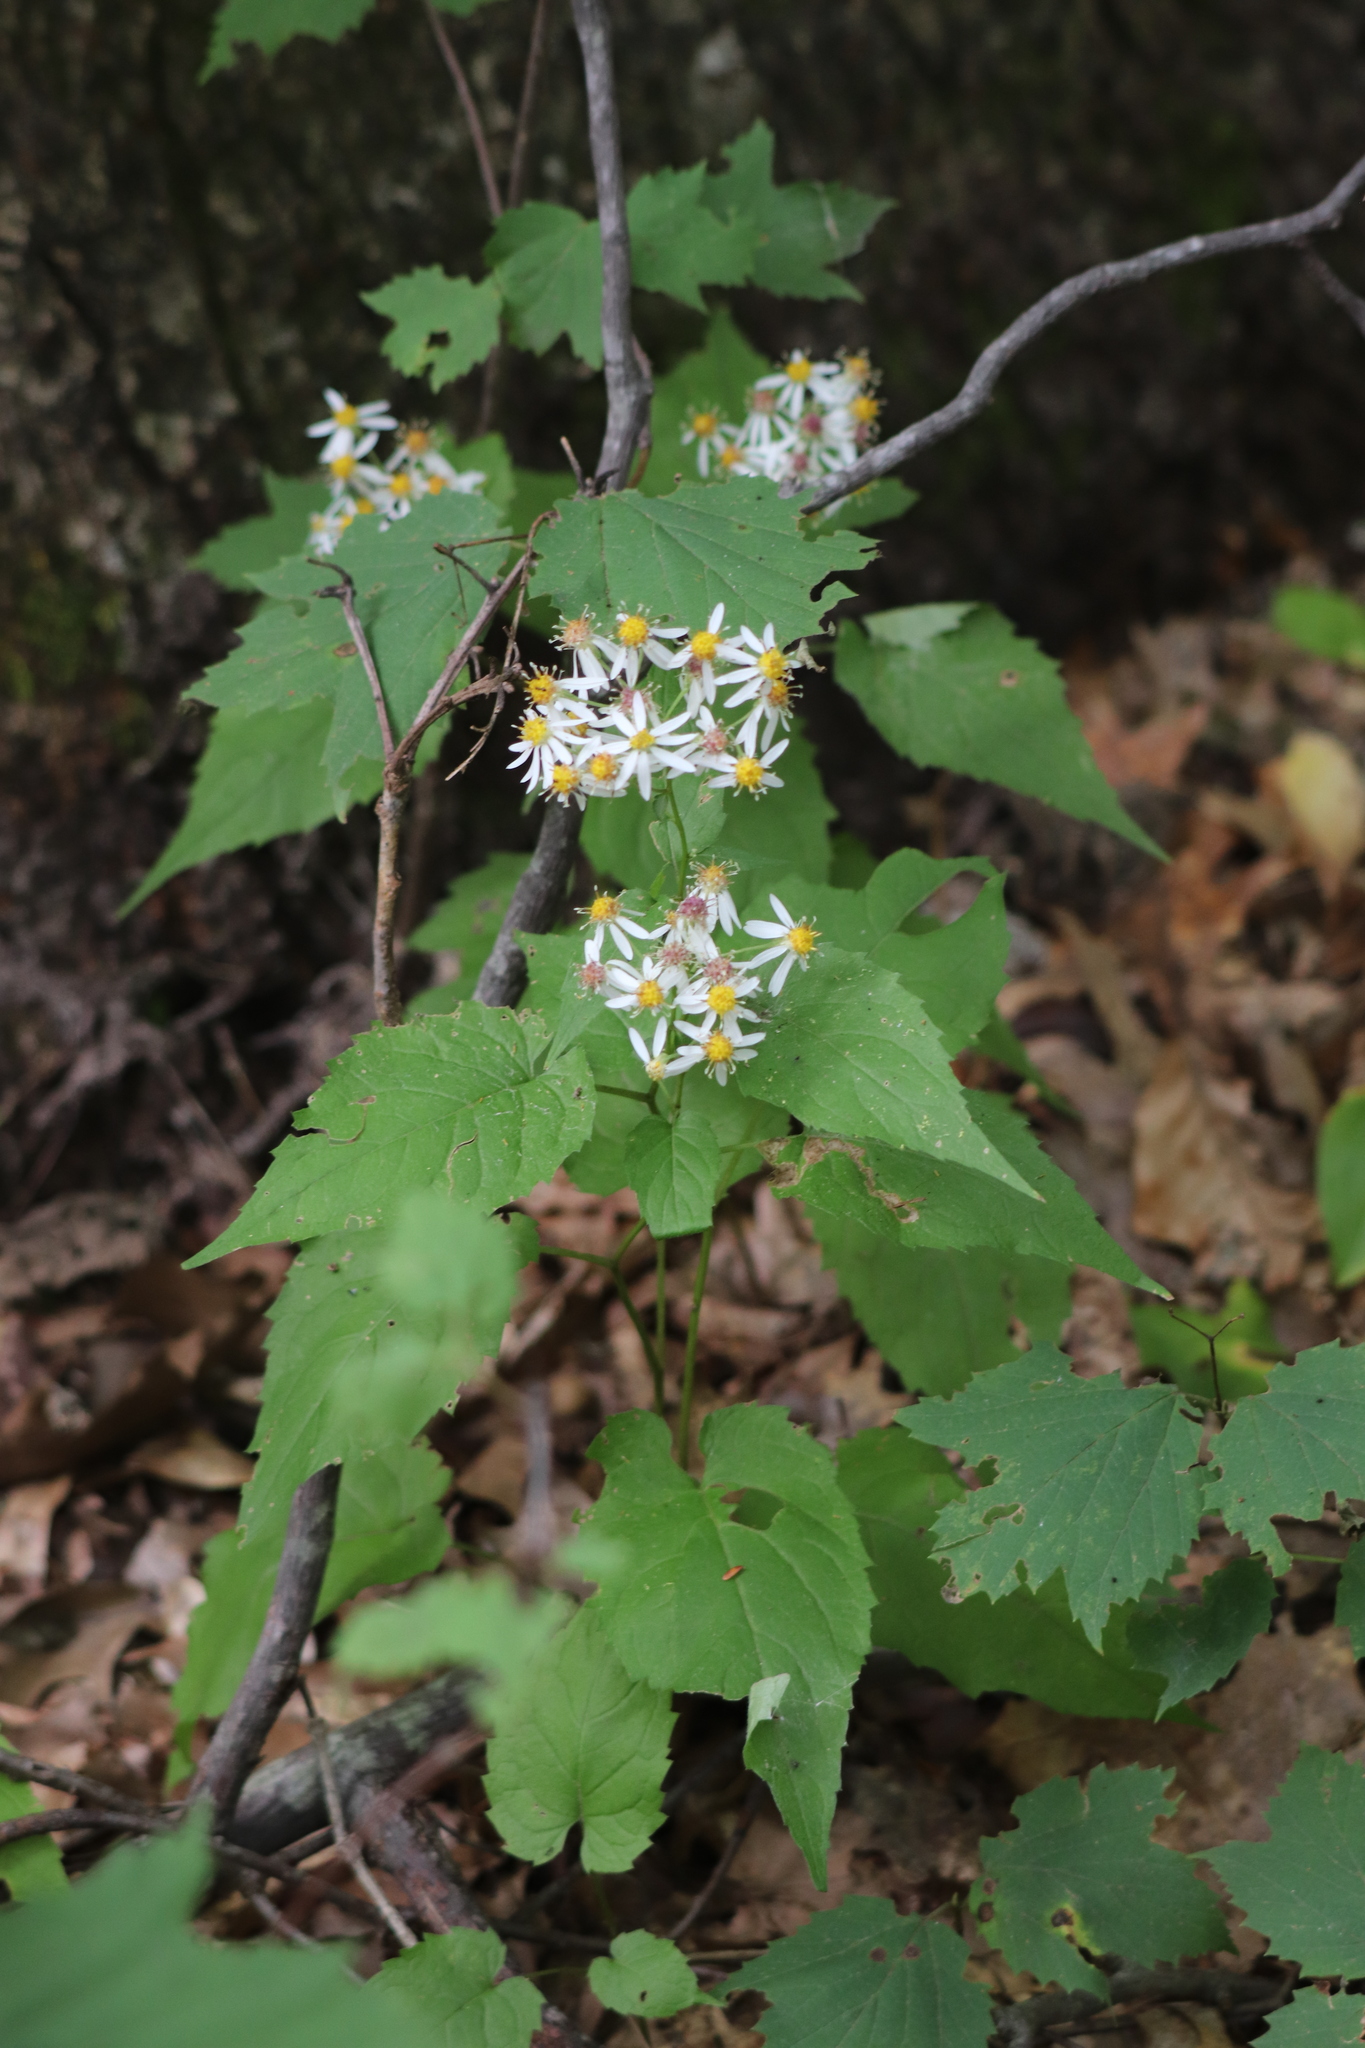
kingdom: Plantae
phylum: Tracheophyta
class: Magnoliopsida
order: Asterales
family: Asteraceae
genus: Eurybia
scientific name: Eurybia divaricata
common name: White wood aster
